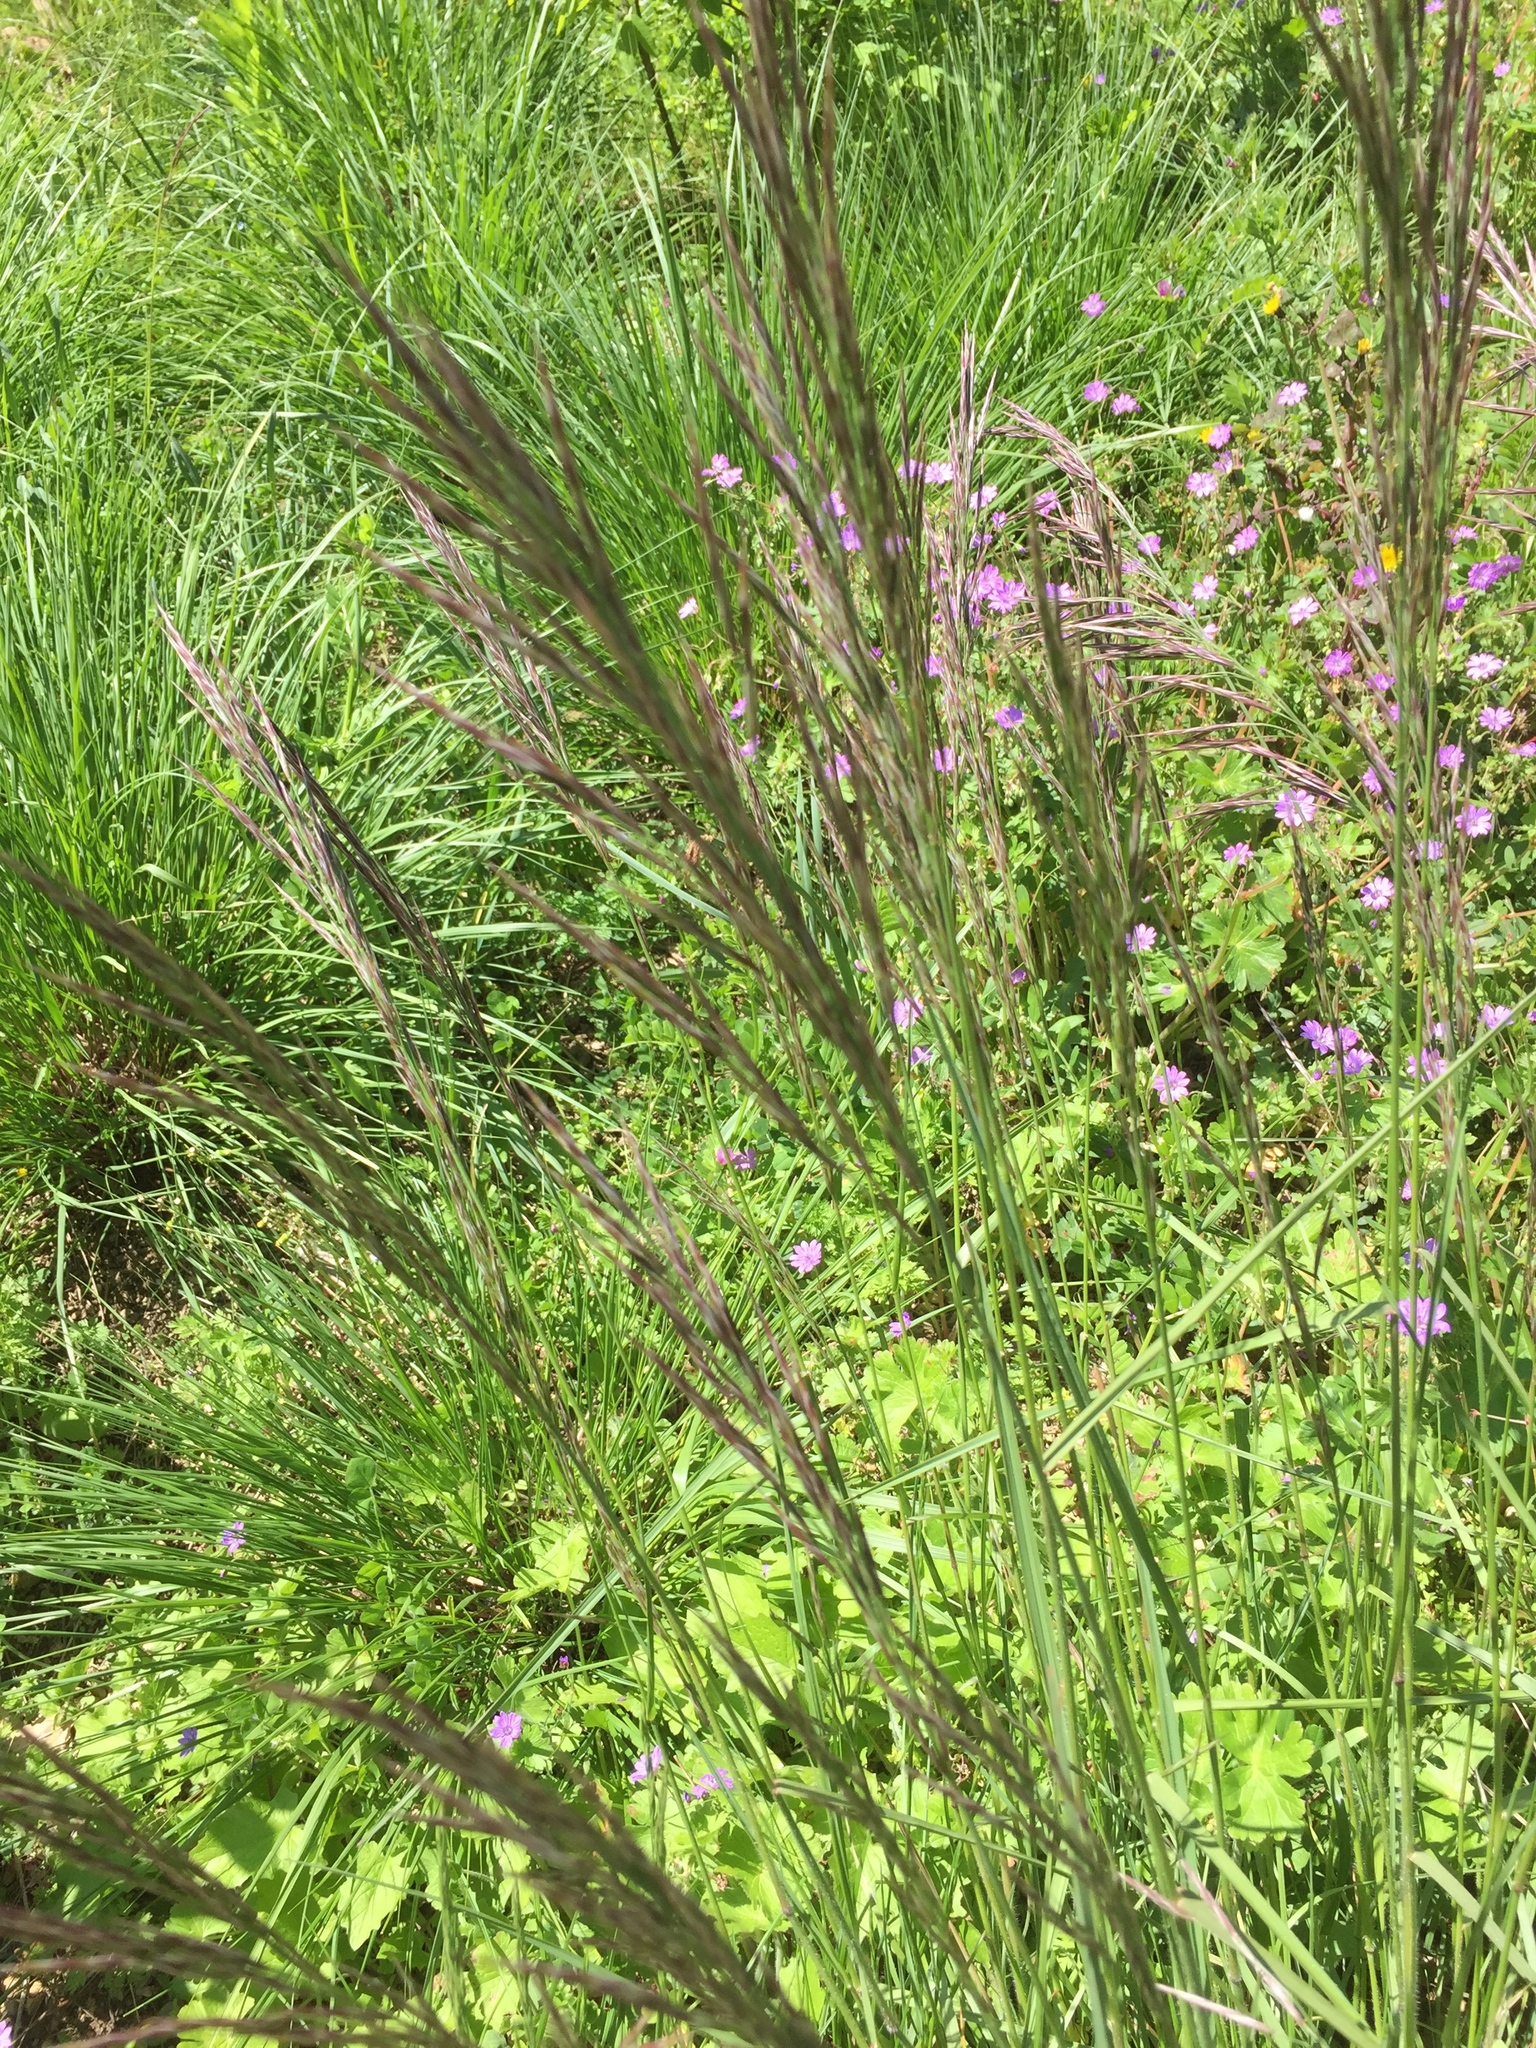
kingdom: Plantae
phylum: Tracheophyta
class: Liliopsida
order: Poales
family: Poaceae
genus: Bromus
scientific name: Bromus erectus
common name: Erect brome
